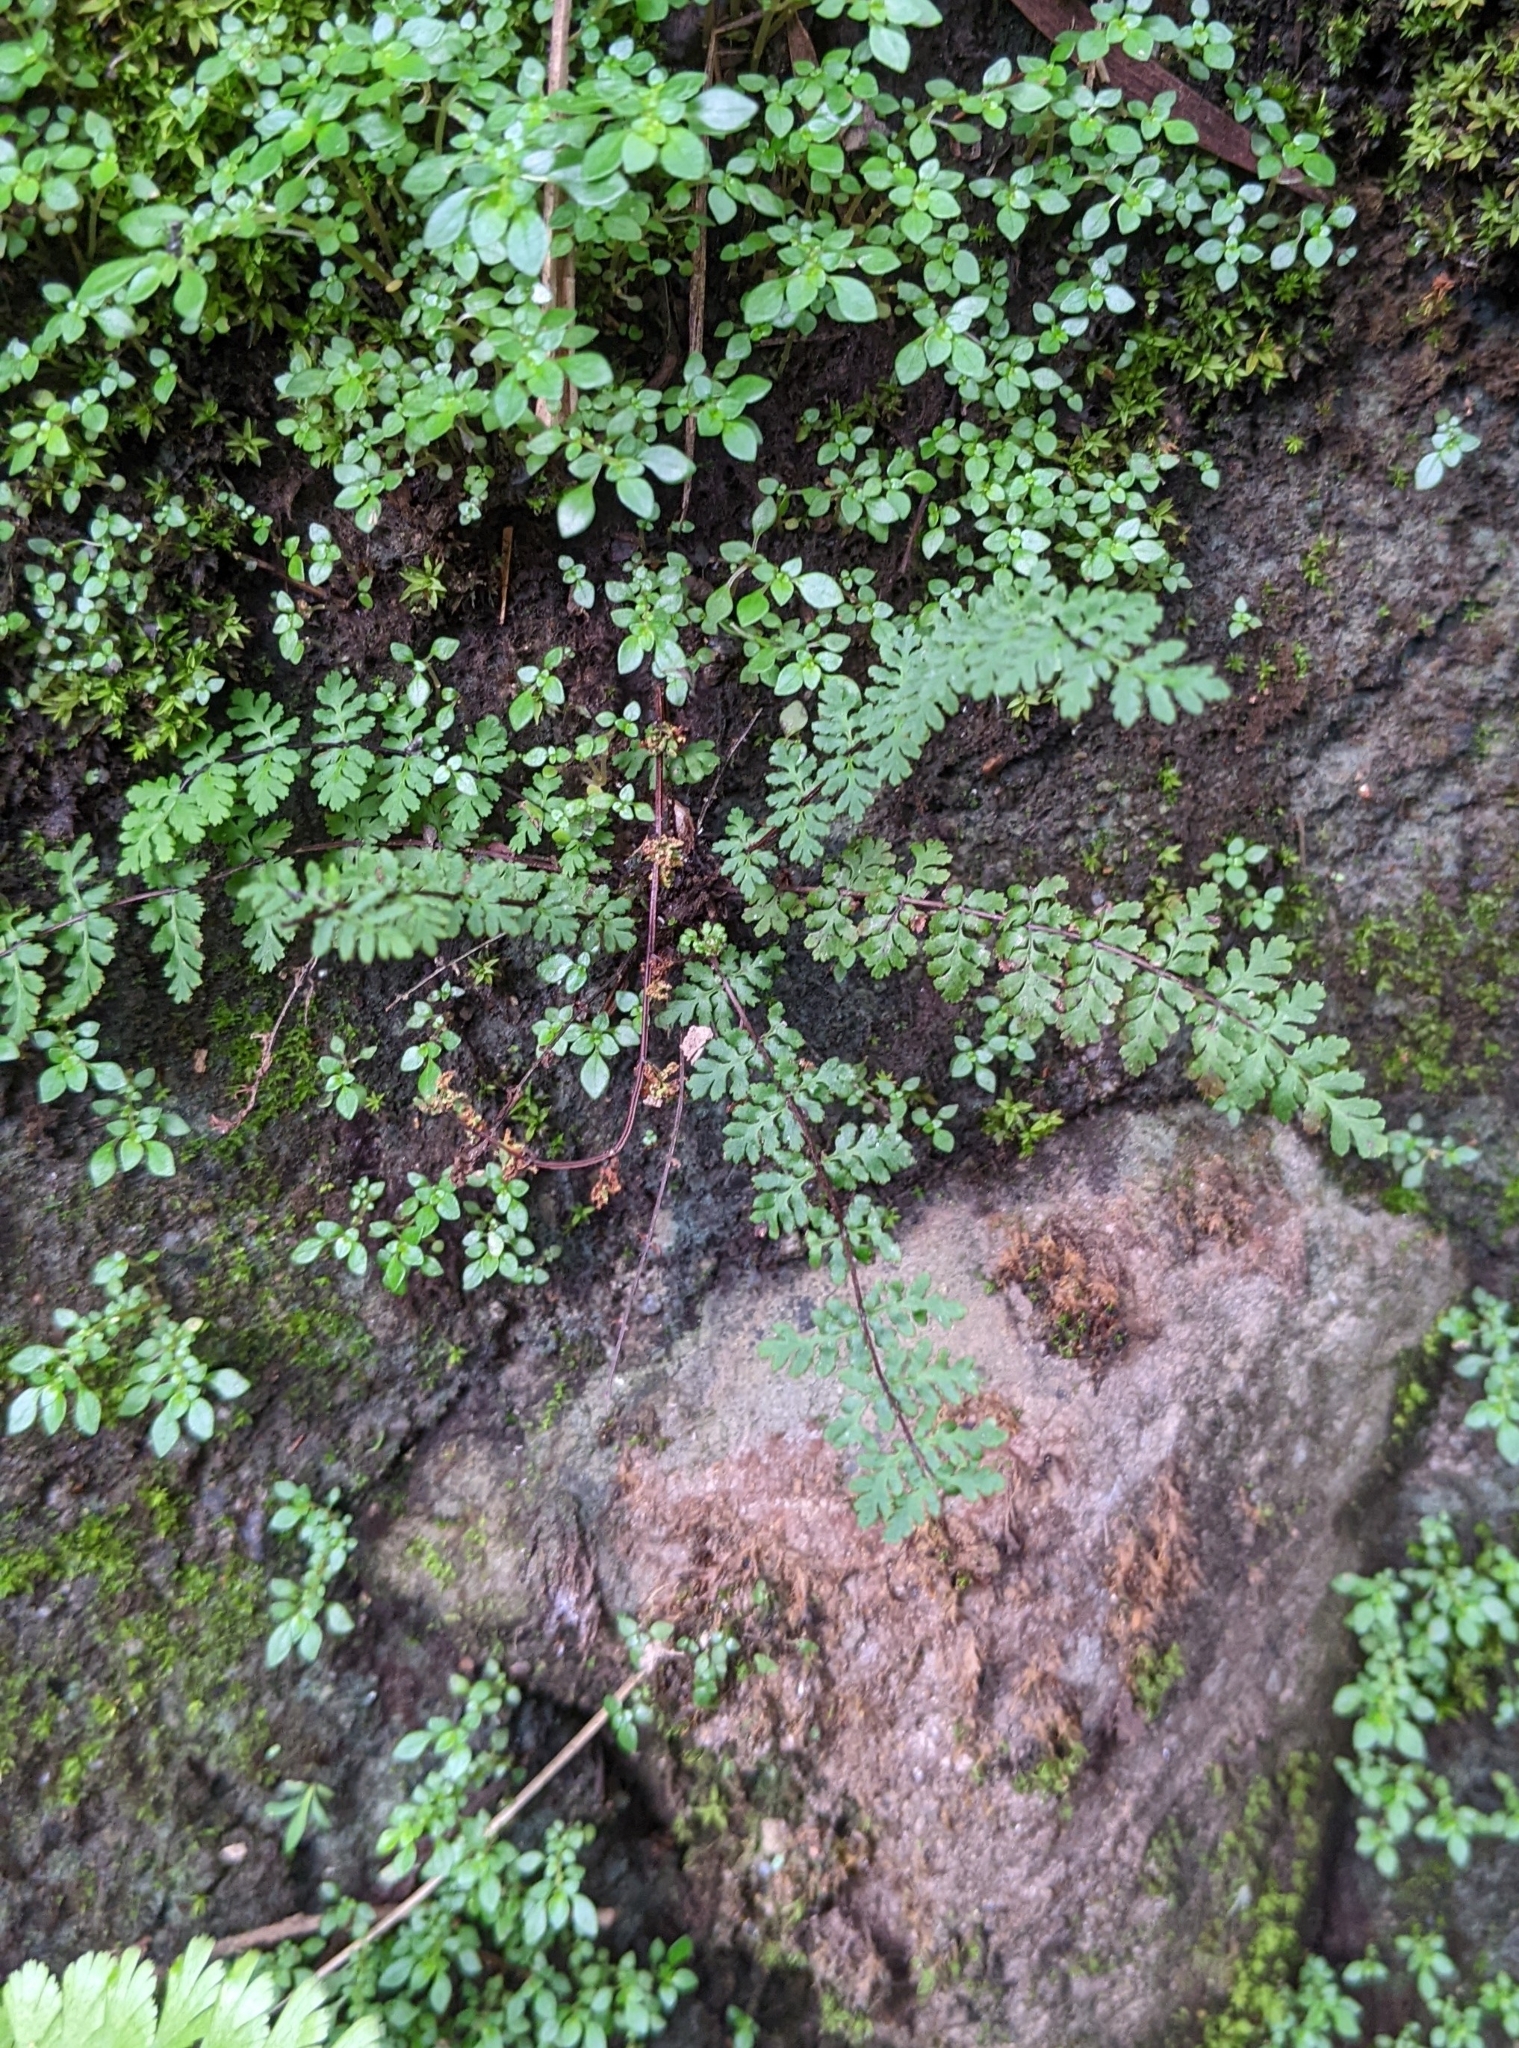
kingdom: Plantae
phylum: Tracheophyta
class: Polypodiopsida
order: Polypodiales
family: Pteridaceae
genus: Oeosporangium
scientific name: Oeosporangium chusanum
